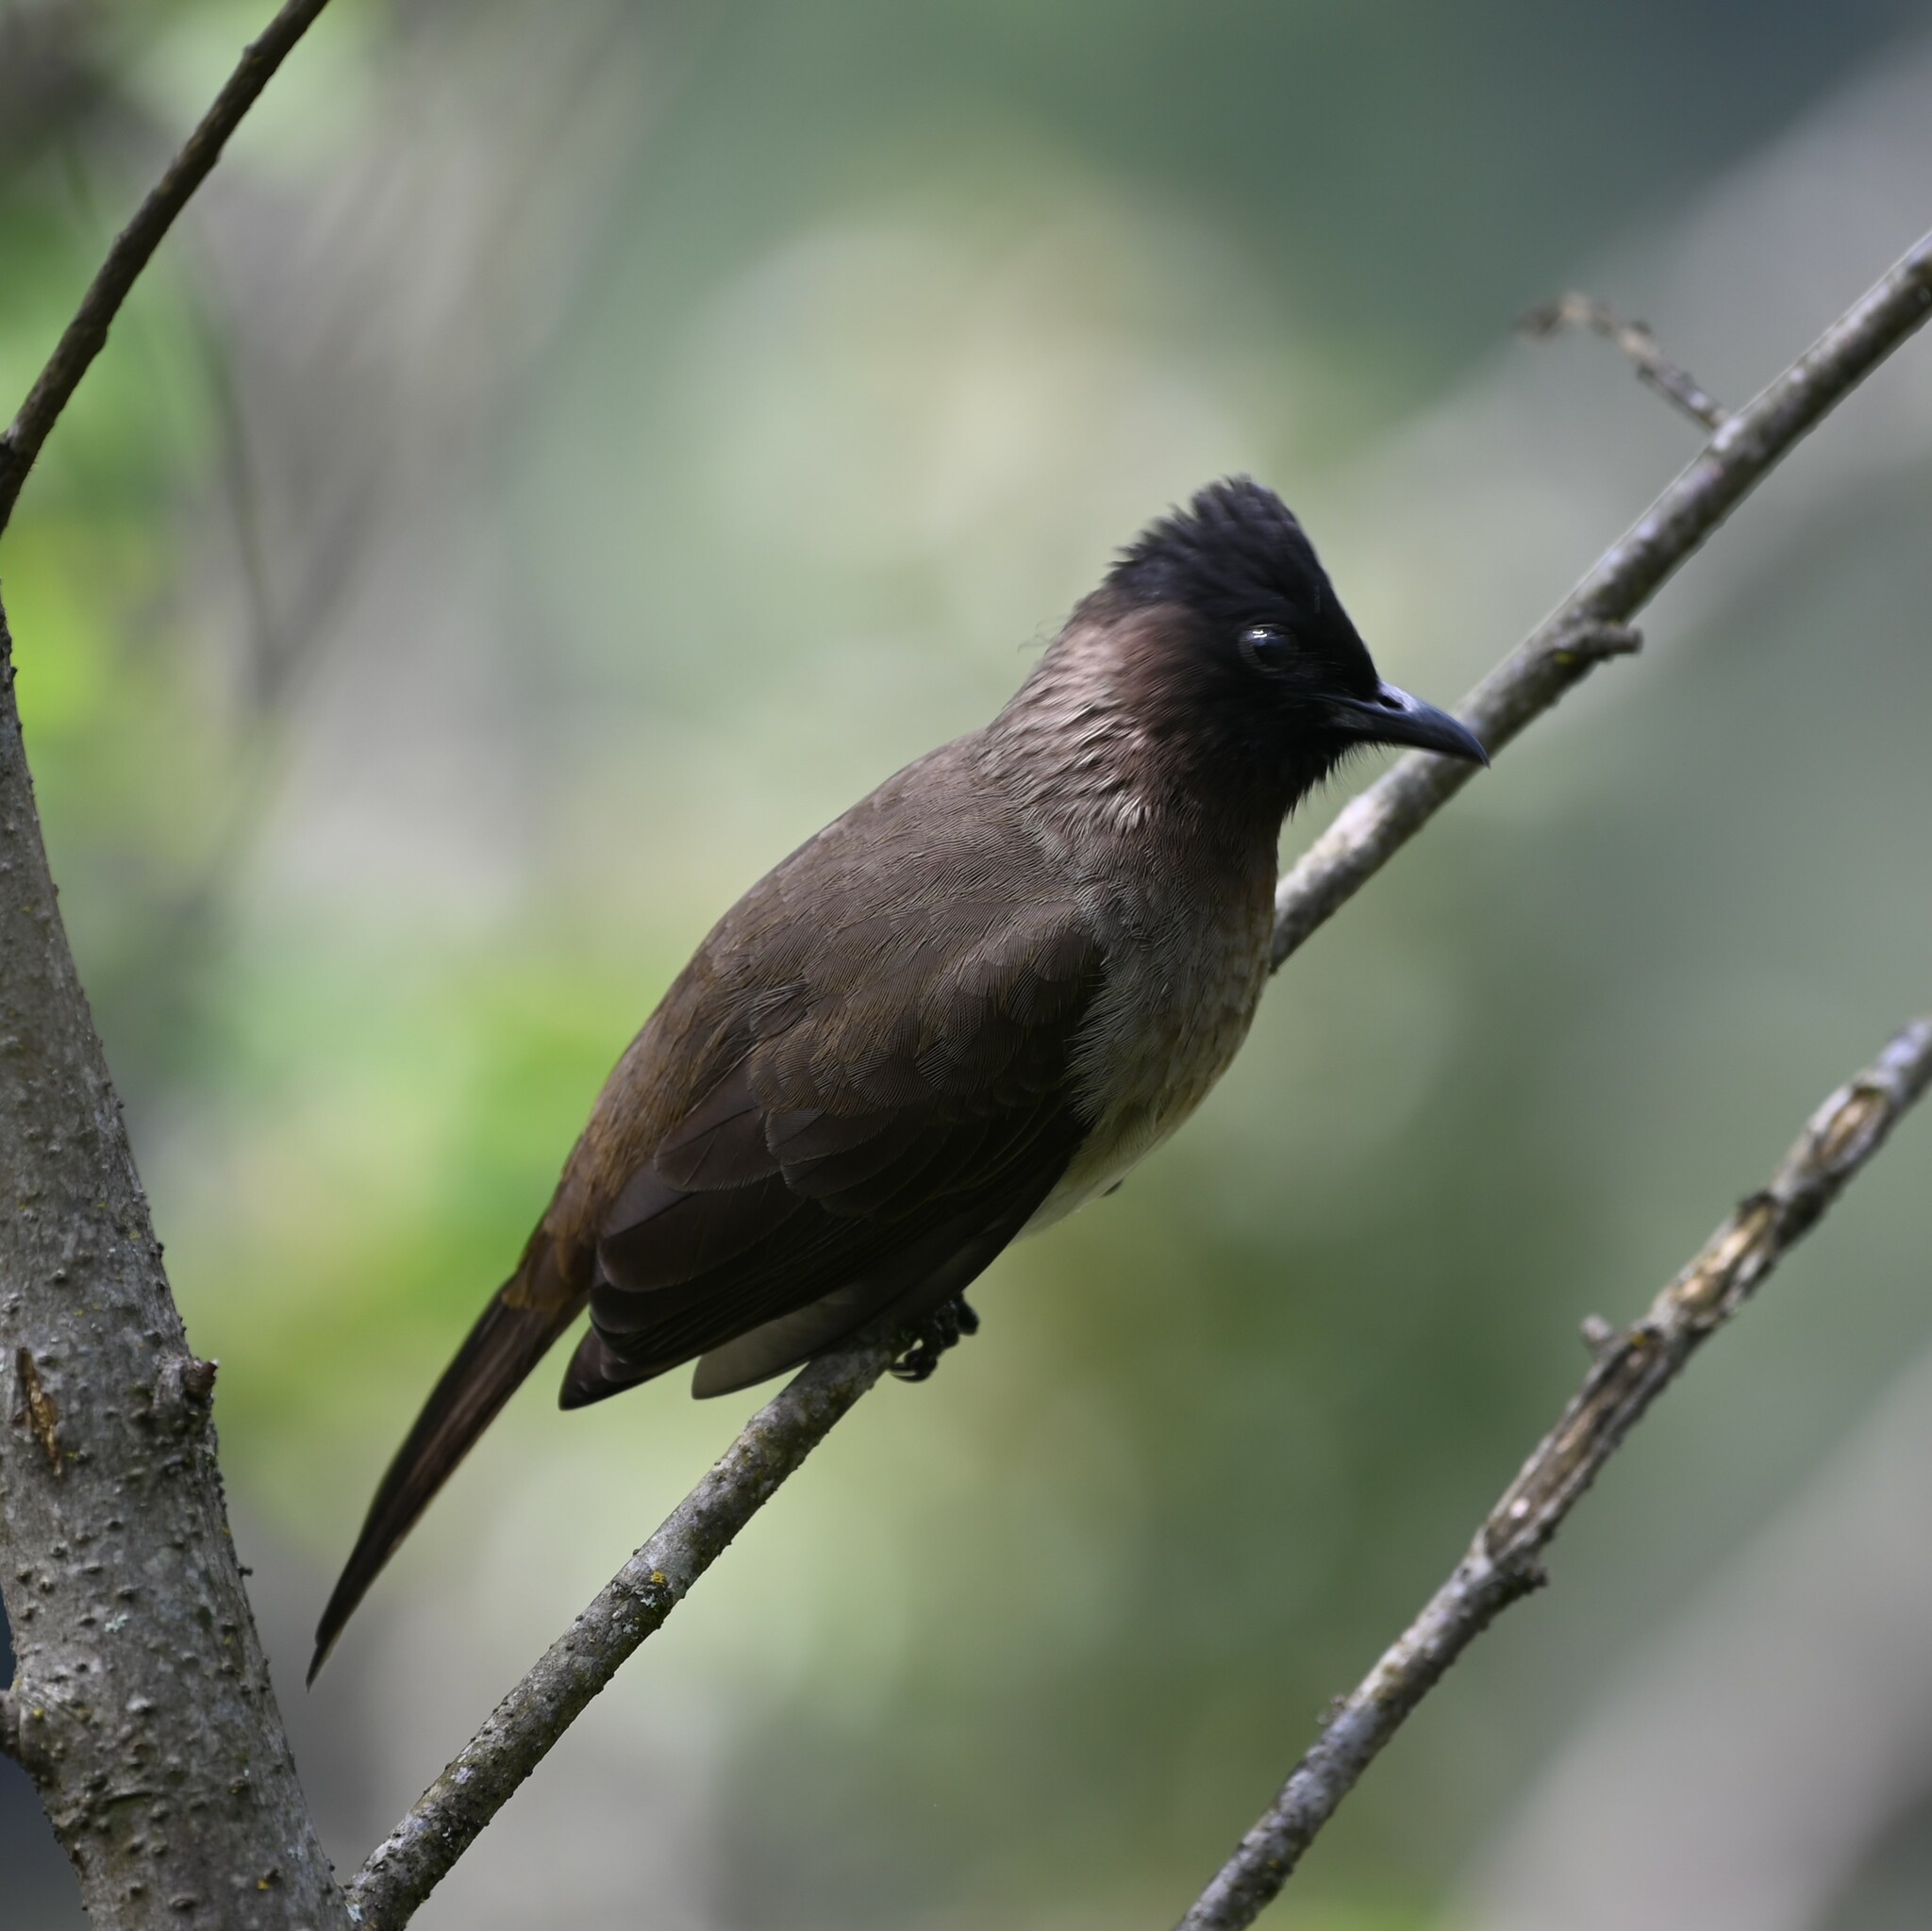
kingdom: Animalia
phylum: Chordata
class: Aves
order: Passeriformes
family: Pycnonotidae
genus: Pycnonotus
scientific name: Pycnonotus barbatus
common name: Common bulbul
